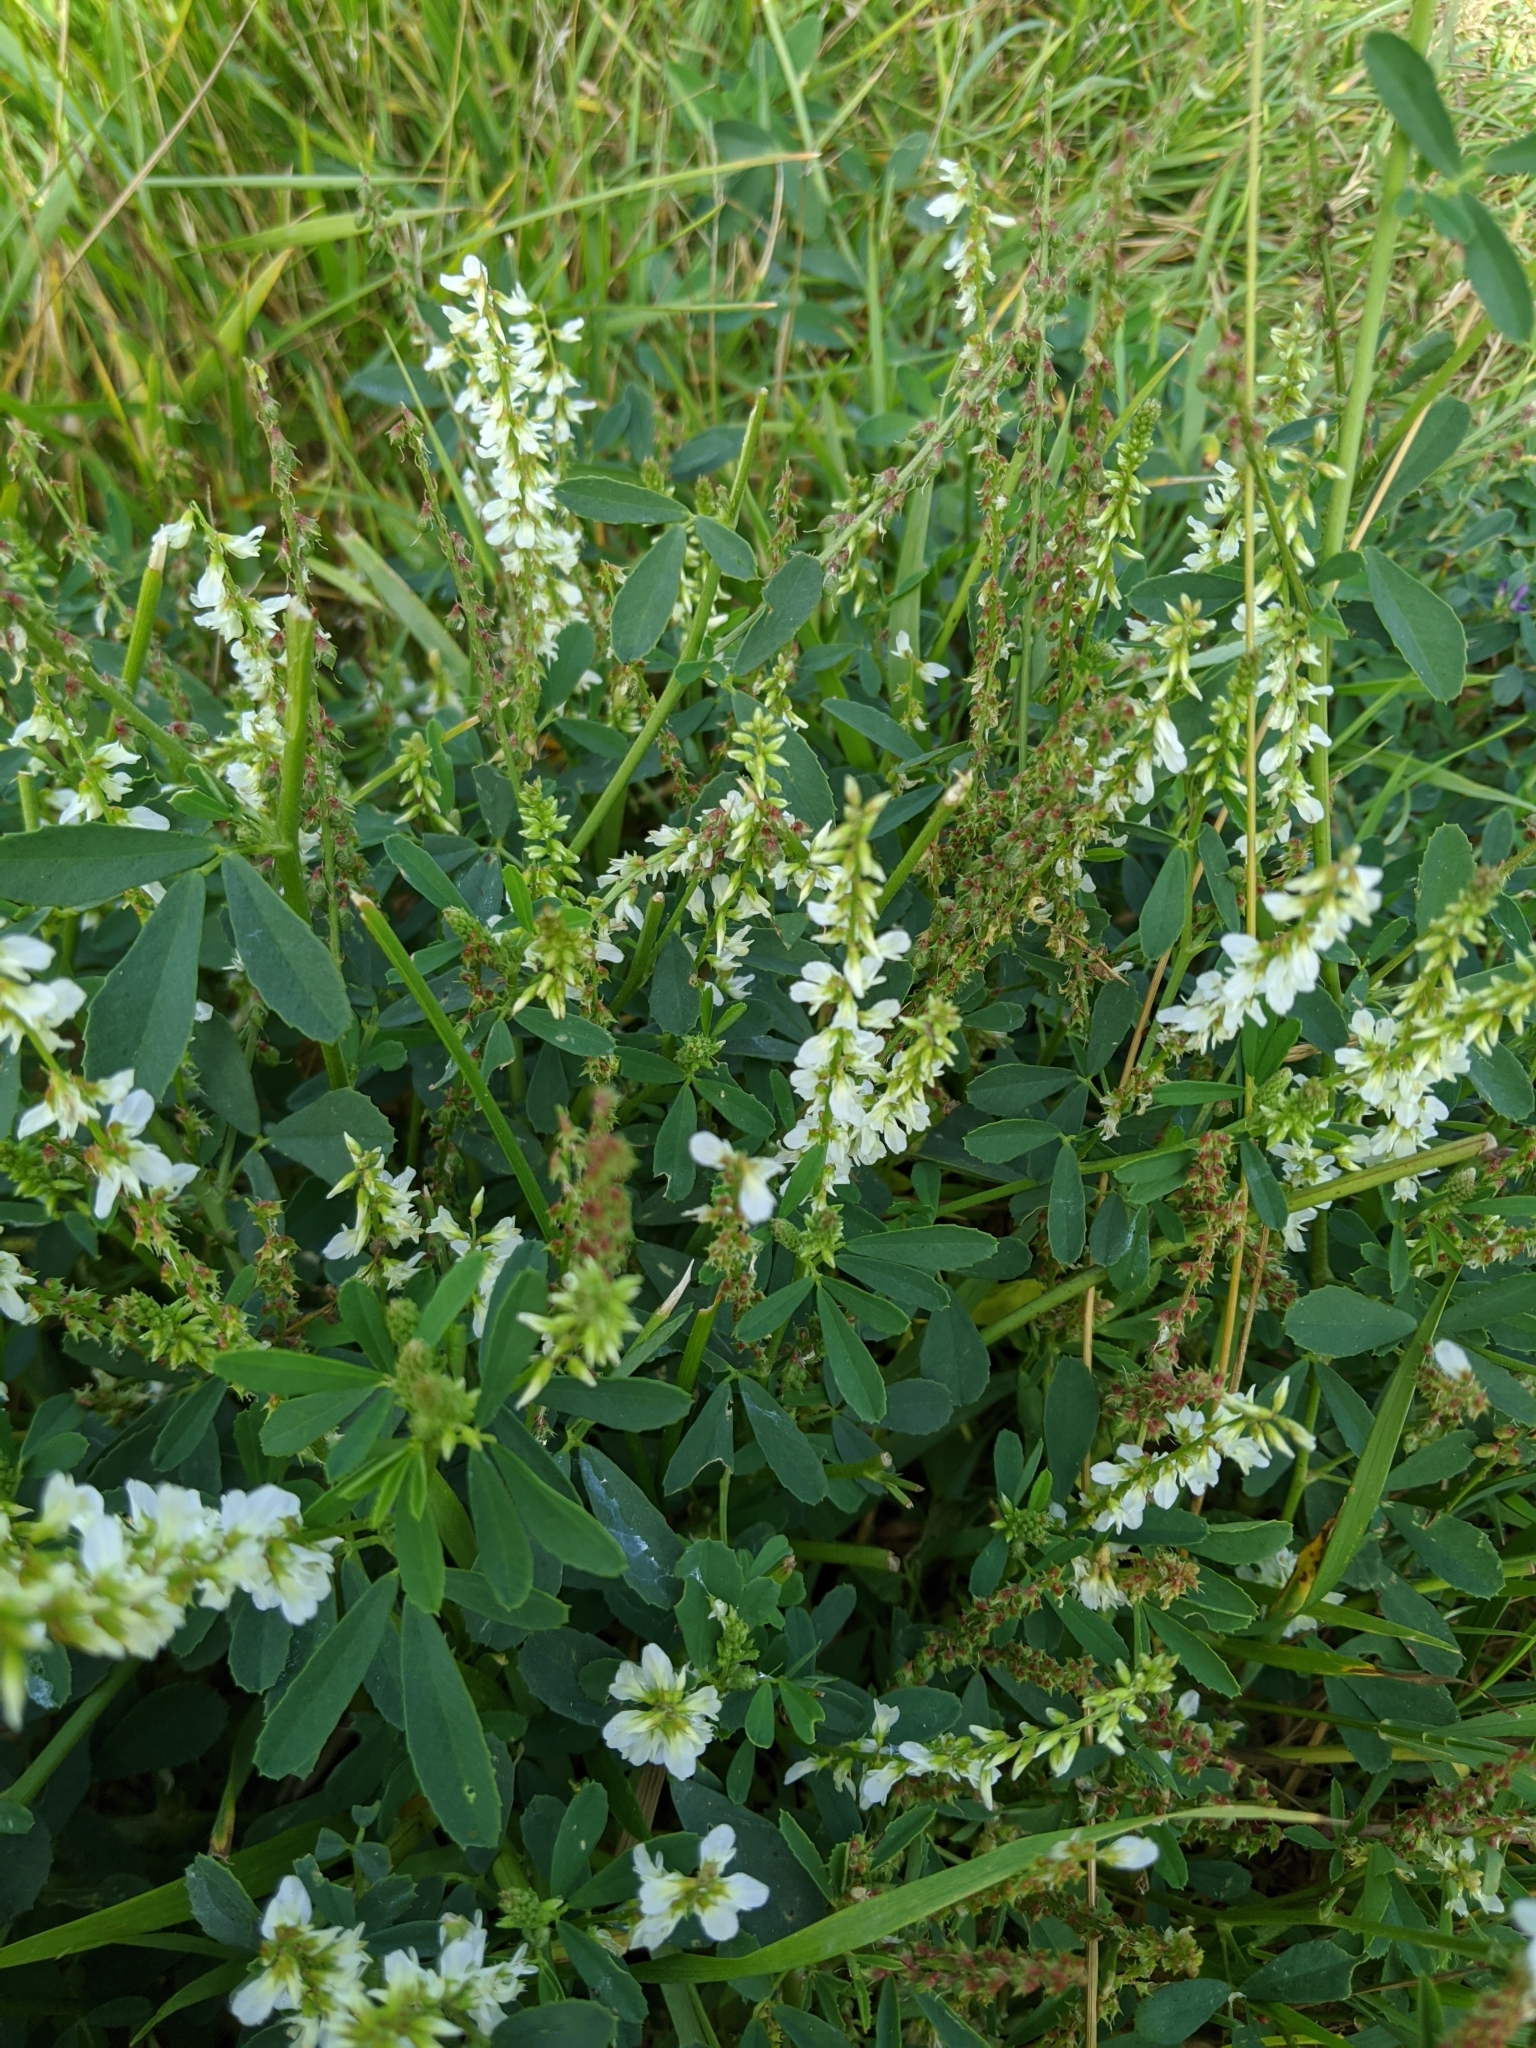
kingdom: Plantae
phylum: Tracheophyta
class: Magnoliopsida
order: Fabales
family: Fabaceae
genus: Melilotus
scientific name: Melilotus albus
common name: White melilot
